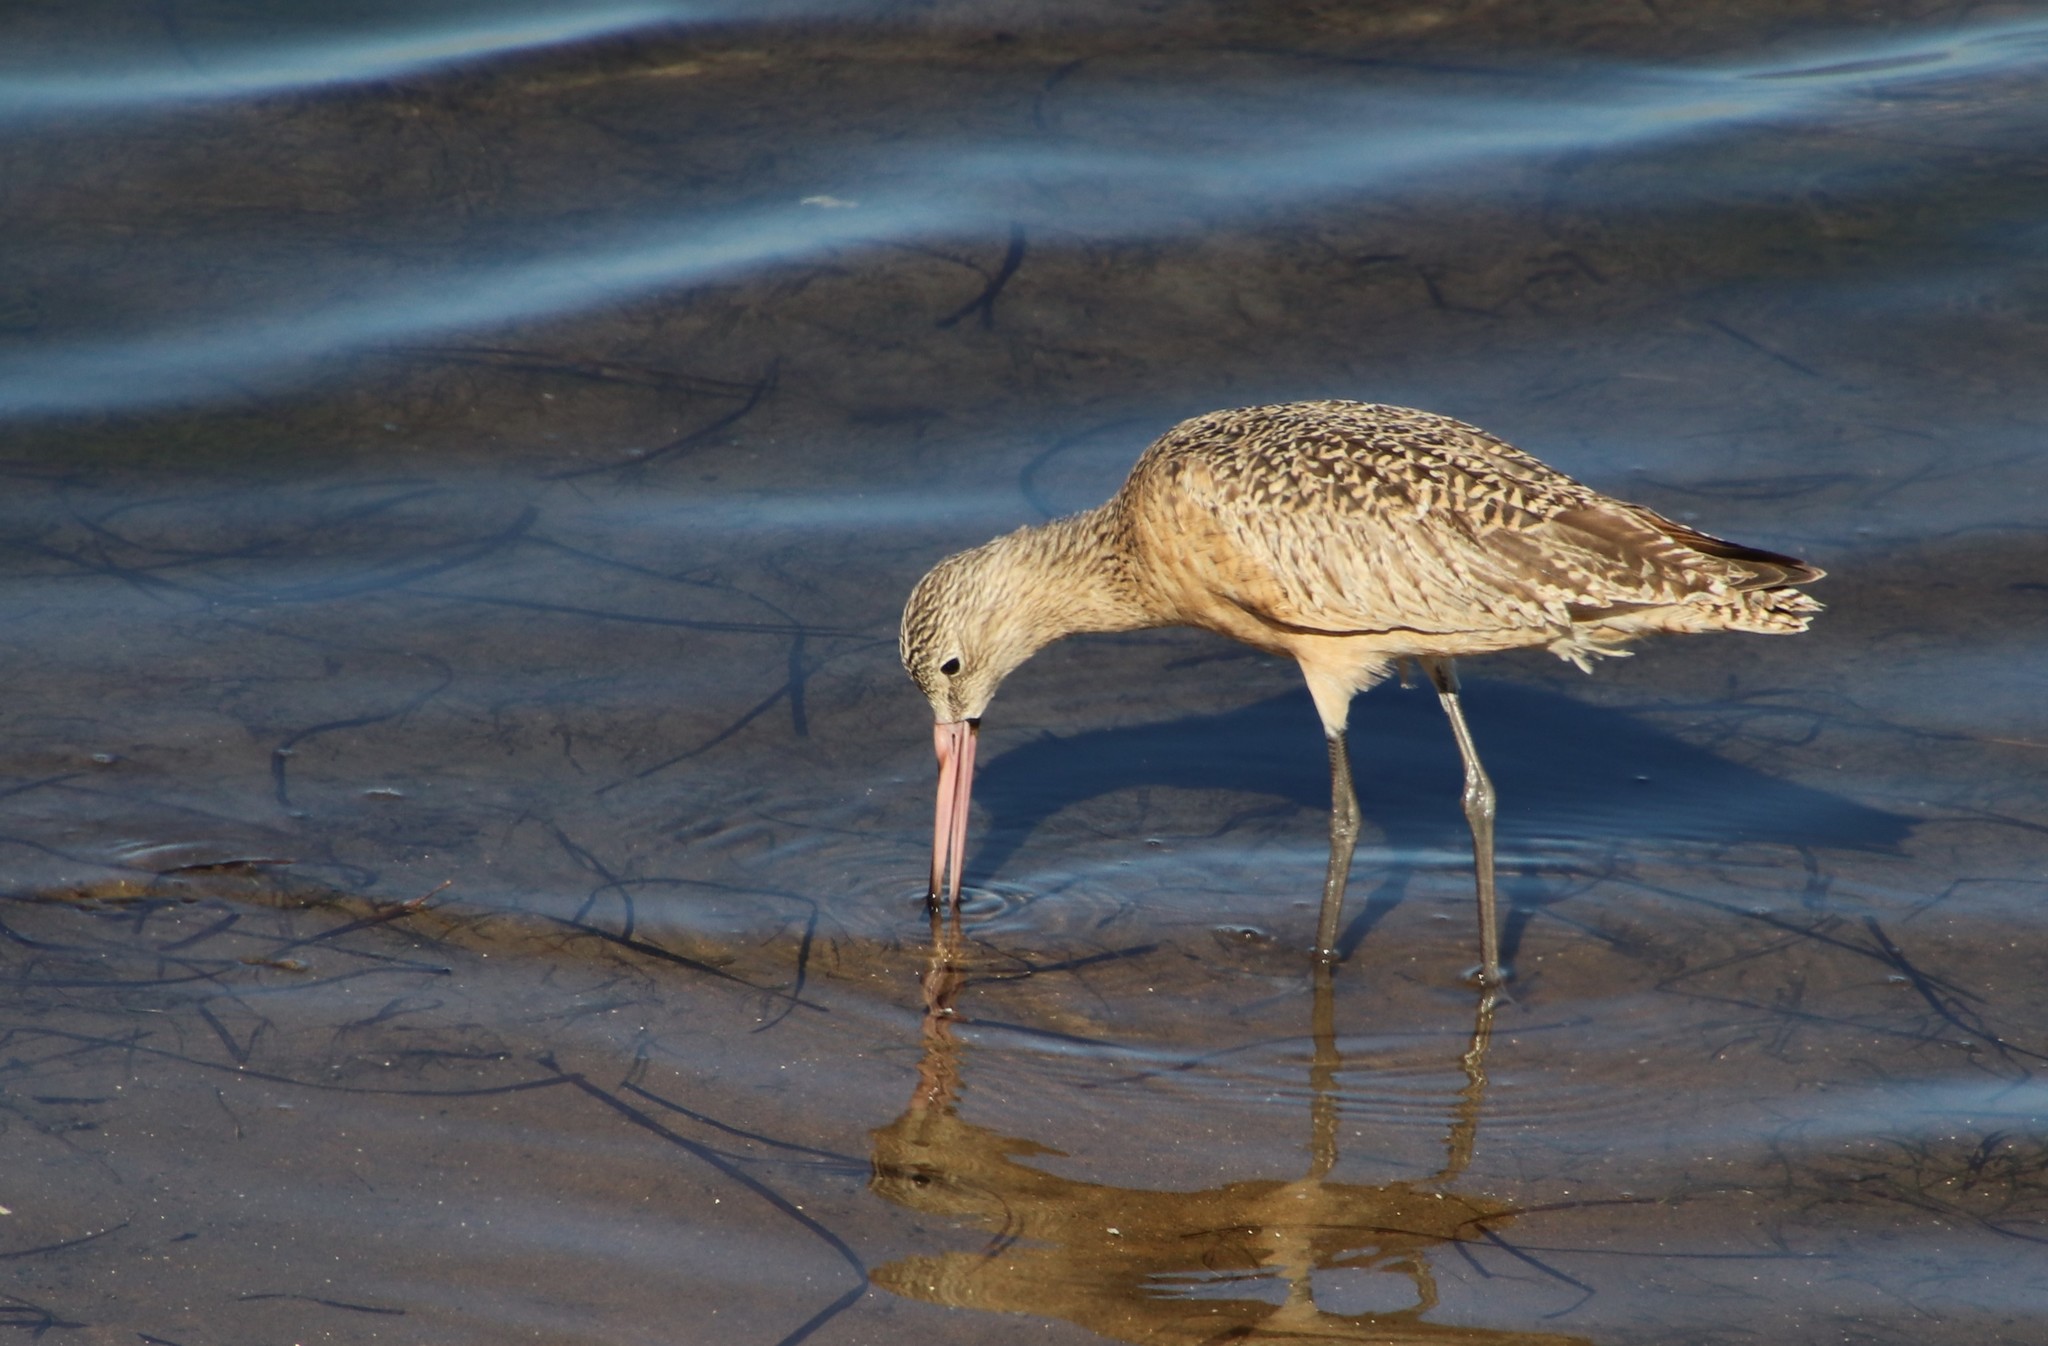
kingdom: Animalia
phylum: Chordata
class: Aves
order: Charadriiformes
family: Scolopacidae
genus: Limosa
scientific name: Limosa fedoa
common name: Marbled godwit
